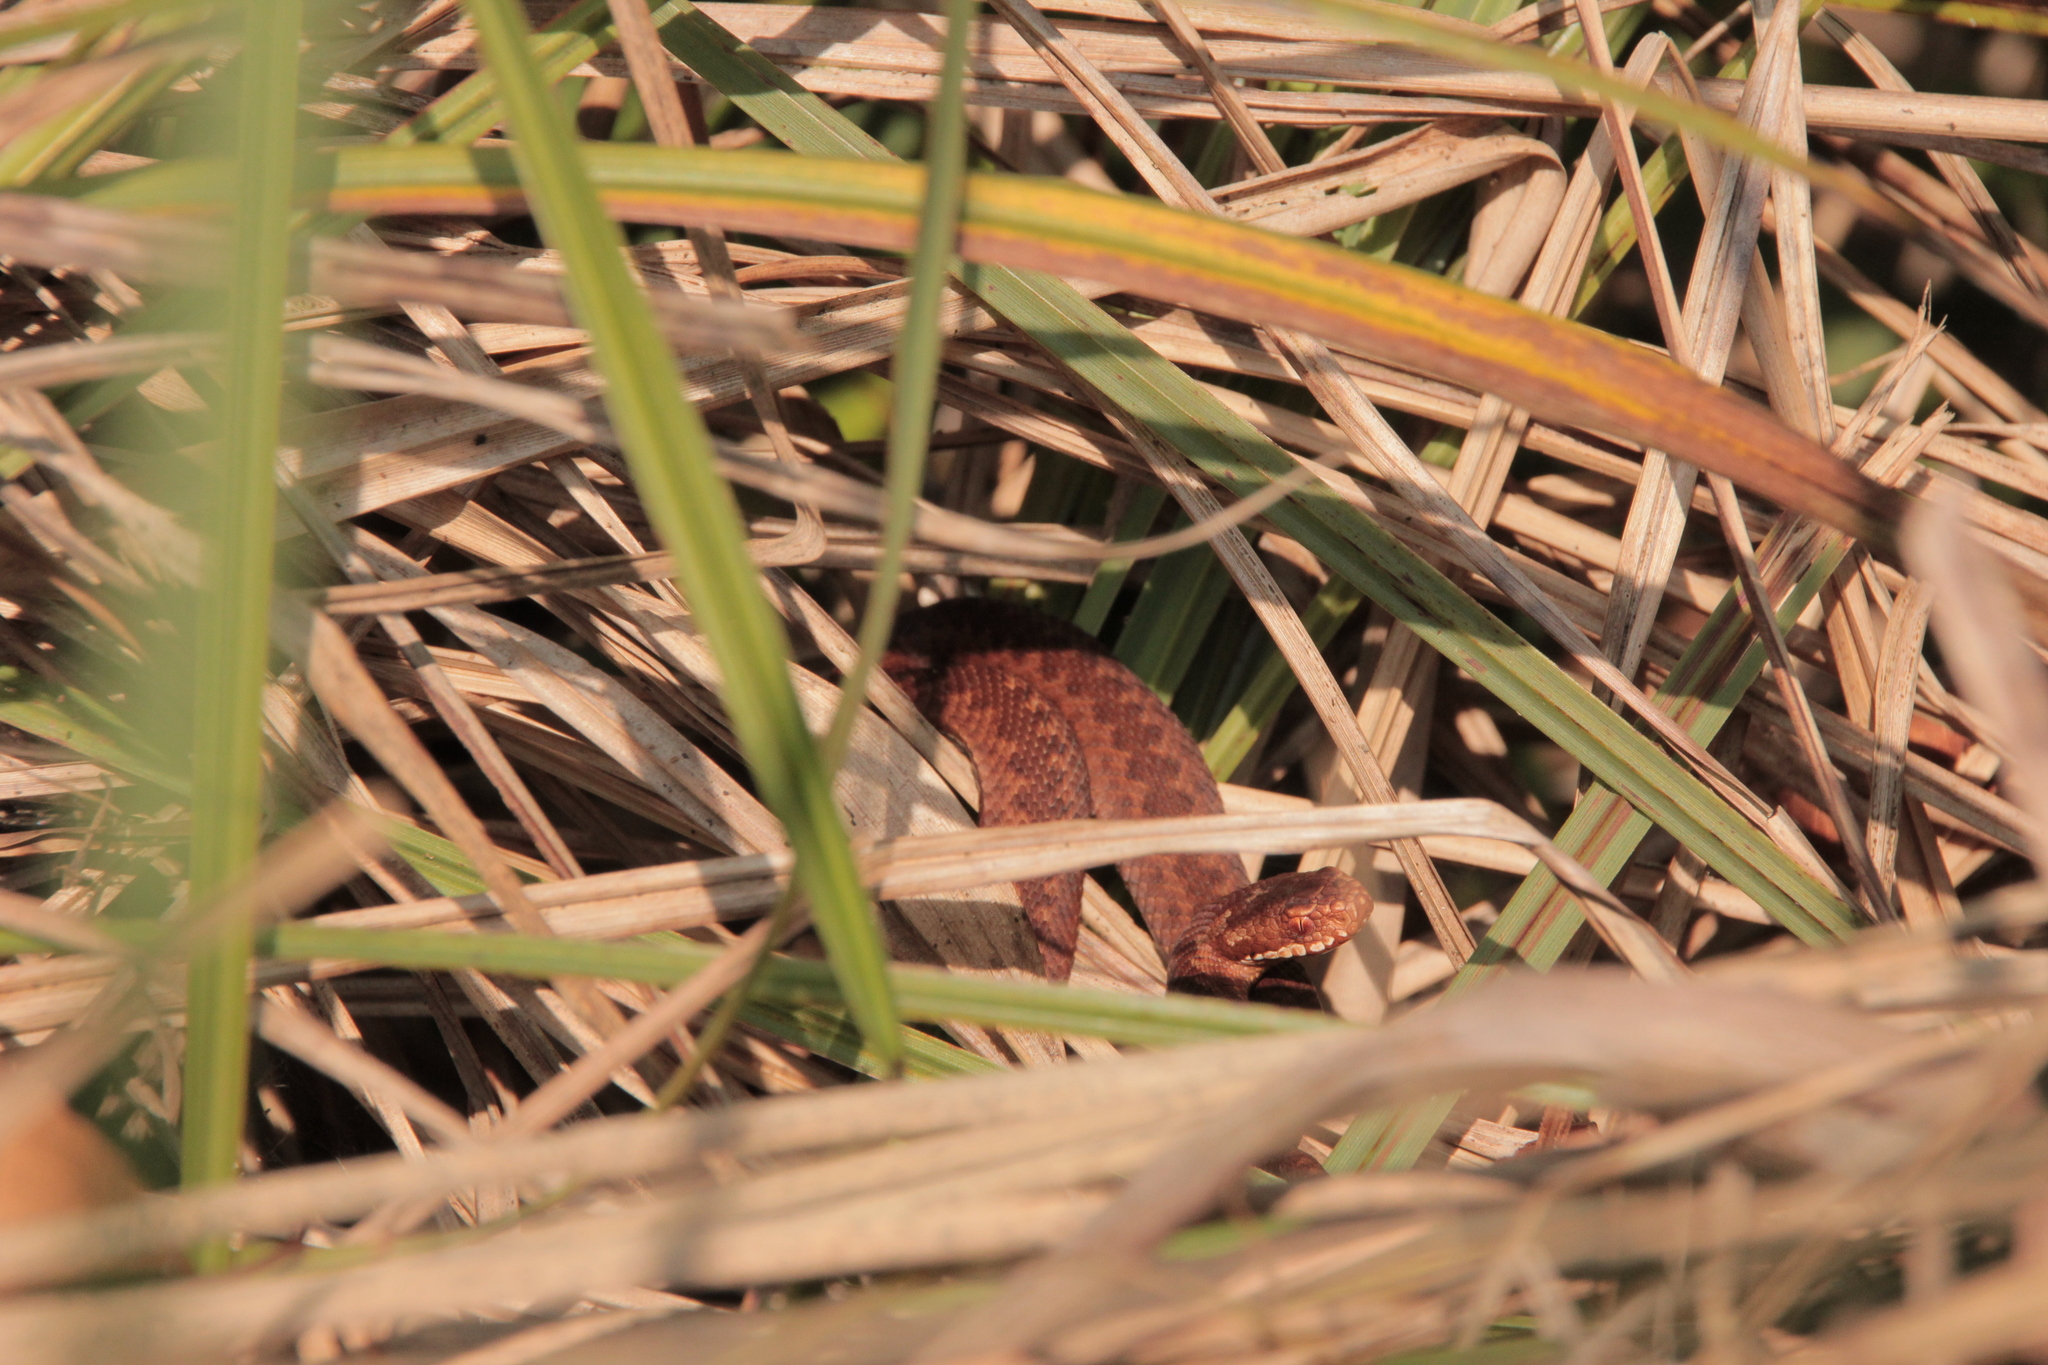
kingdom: Animalia
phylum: Chordata
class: Squamata
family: Viperidae
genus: Vipera
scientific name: Vipera berus
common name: Adder
